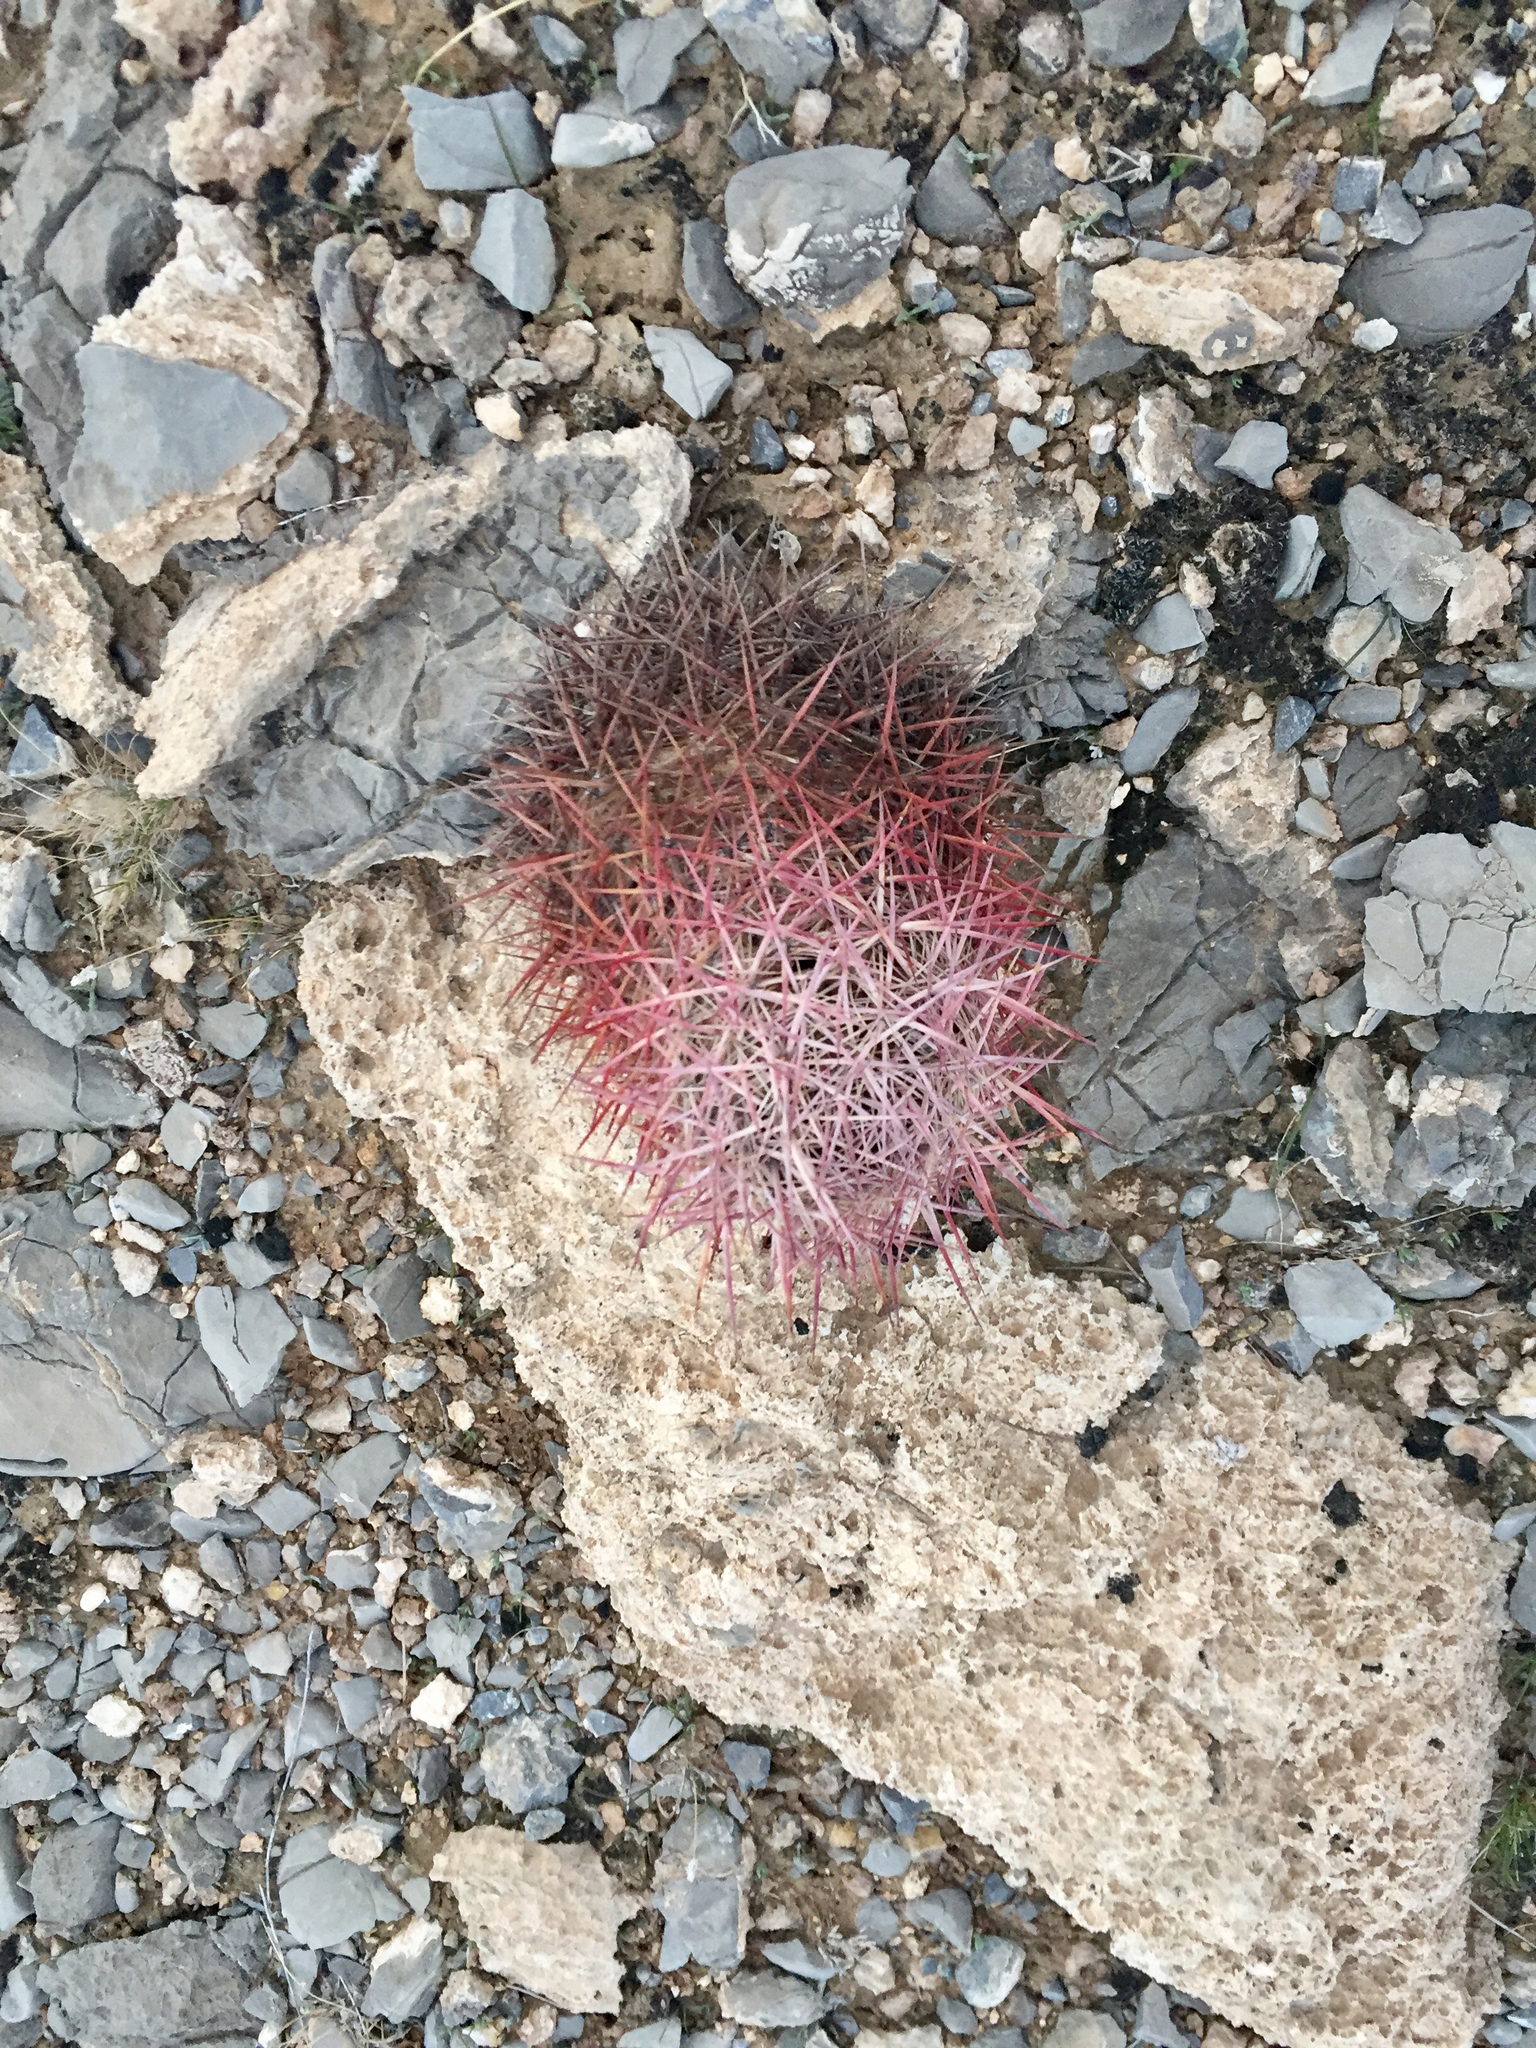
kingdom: Plantae
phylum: Tracheophyta
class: Magnoliopsida
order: Caryophyllales
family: Cactaceae
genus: Sclerocactus
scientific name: Sclerocactus johnsonii
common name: Eight-spine fishhook cactus
